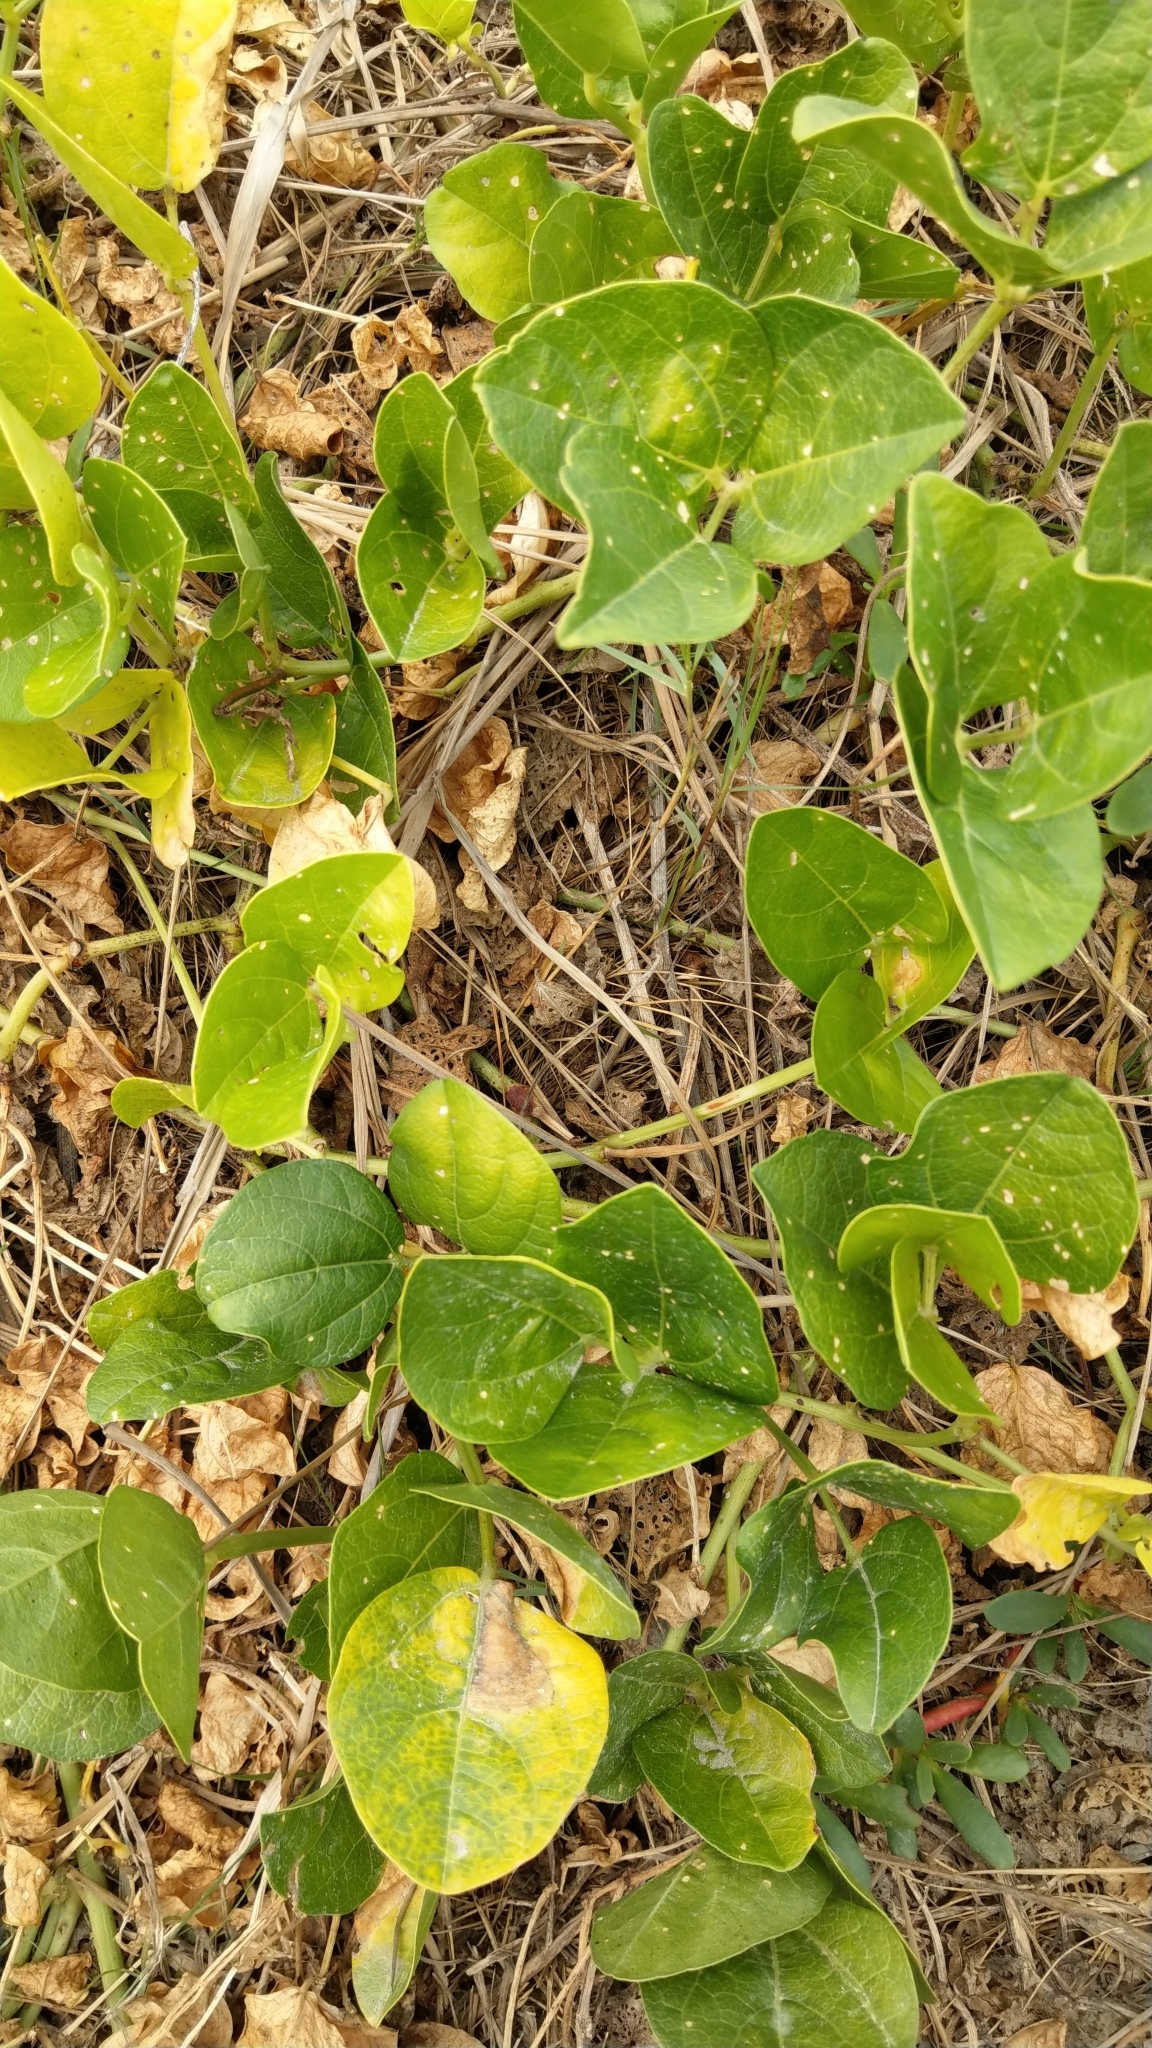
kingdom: Plantae
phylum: Tracheophyta
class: Magnoliopsida
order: Fabales
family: Fabaceae
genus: Canavalia
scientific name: Canavalia rosea
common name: Beach-bean
